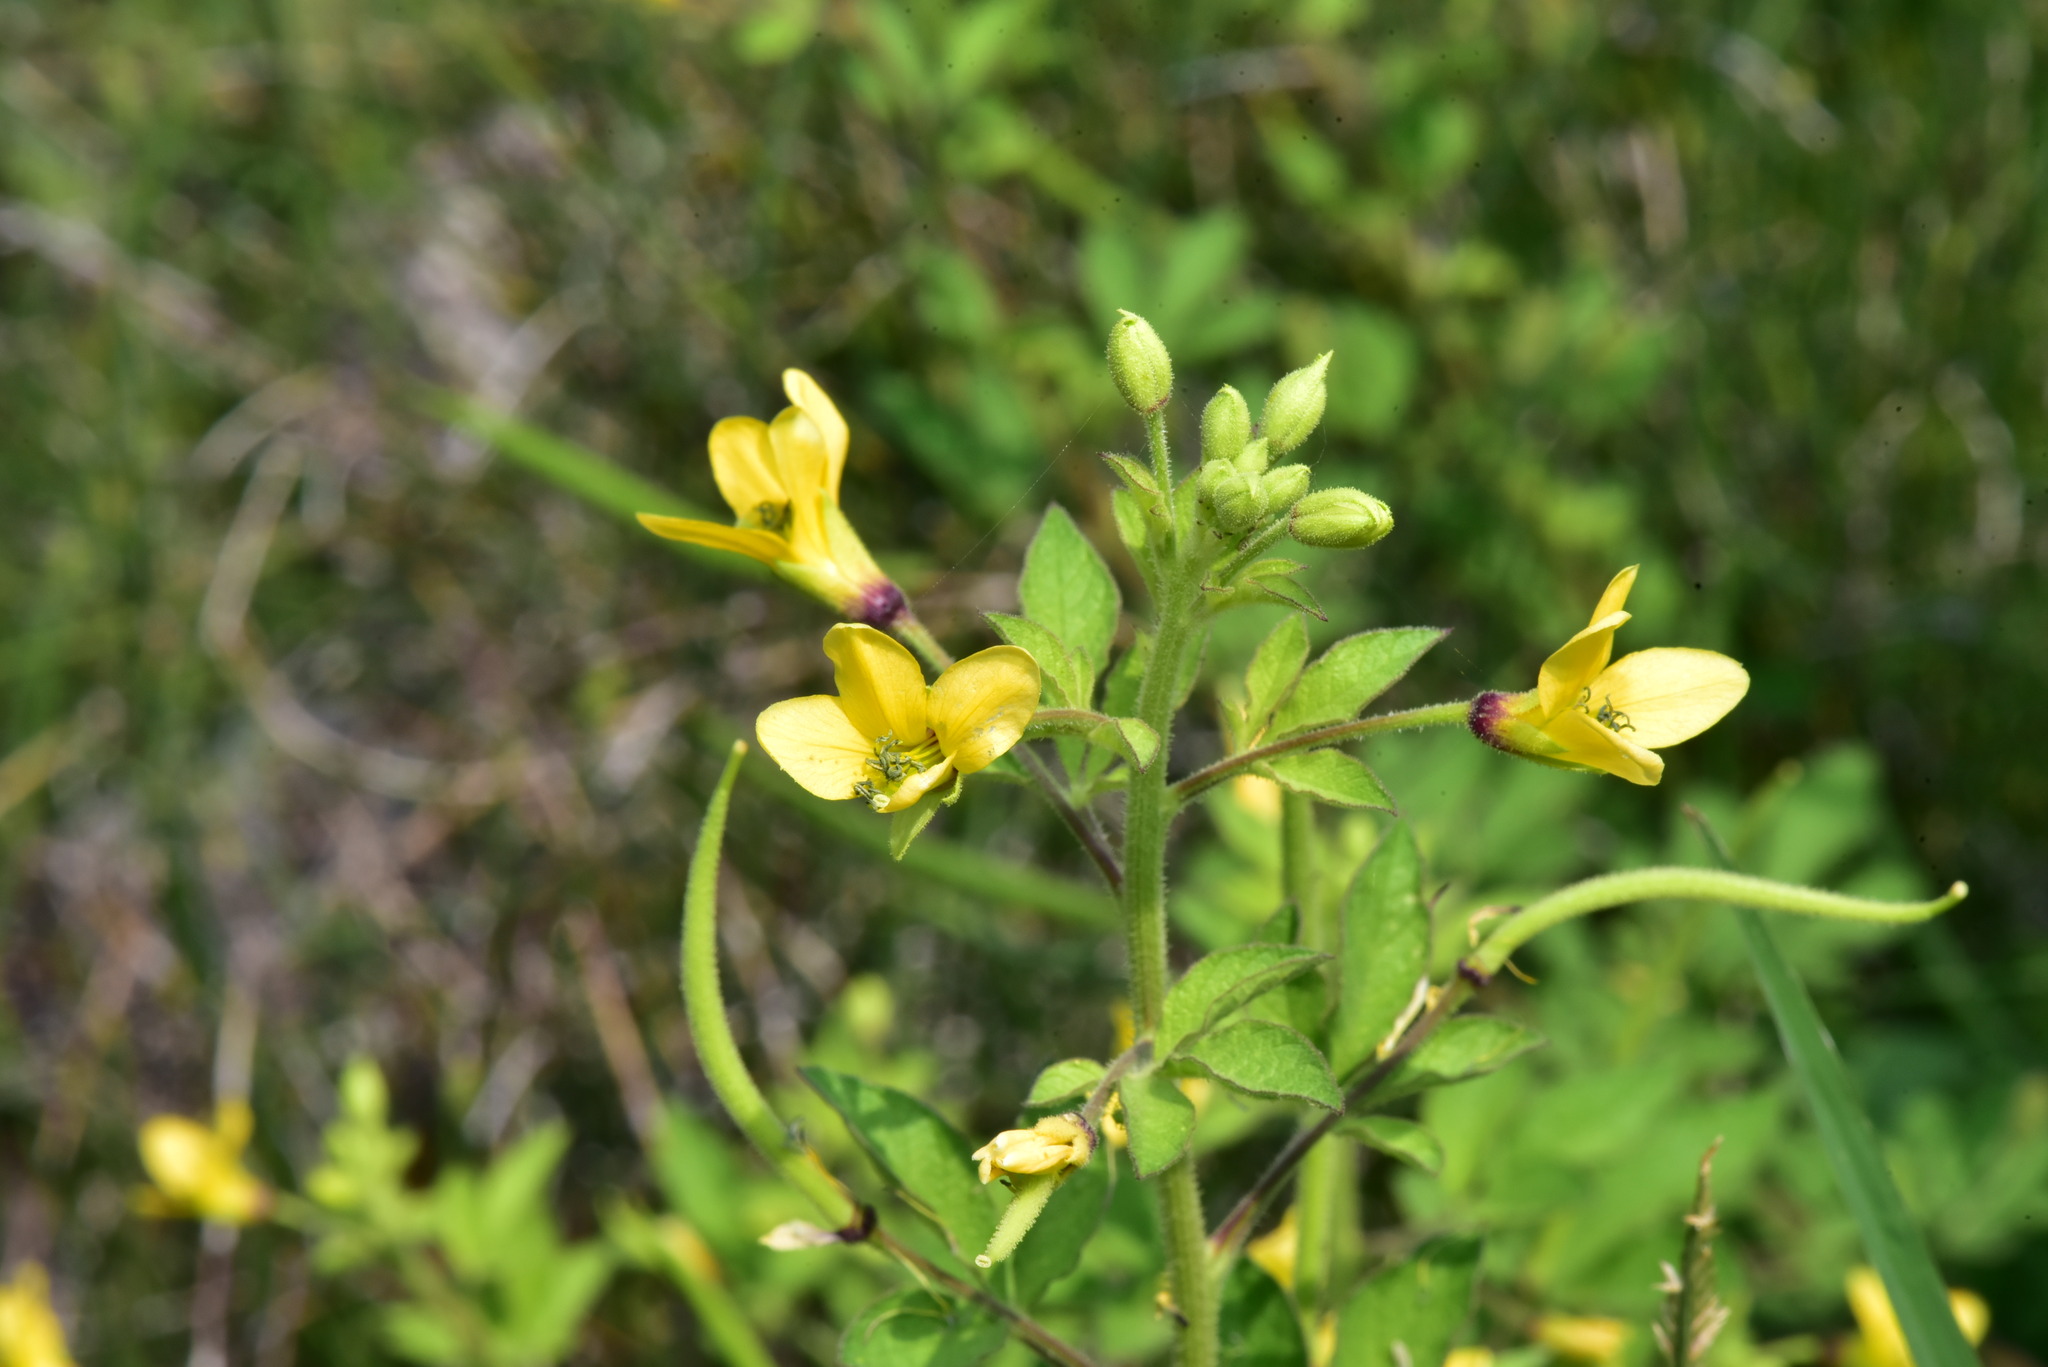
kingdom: Plantae
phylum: Tracheophyta
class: Magnoliopsida
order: Brassicales
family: Cleomaceae
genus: Arivela
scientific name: Arivela viscosa
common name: Asian spiderflower
